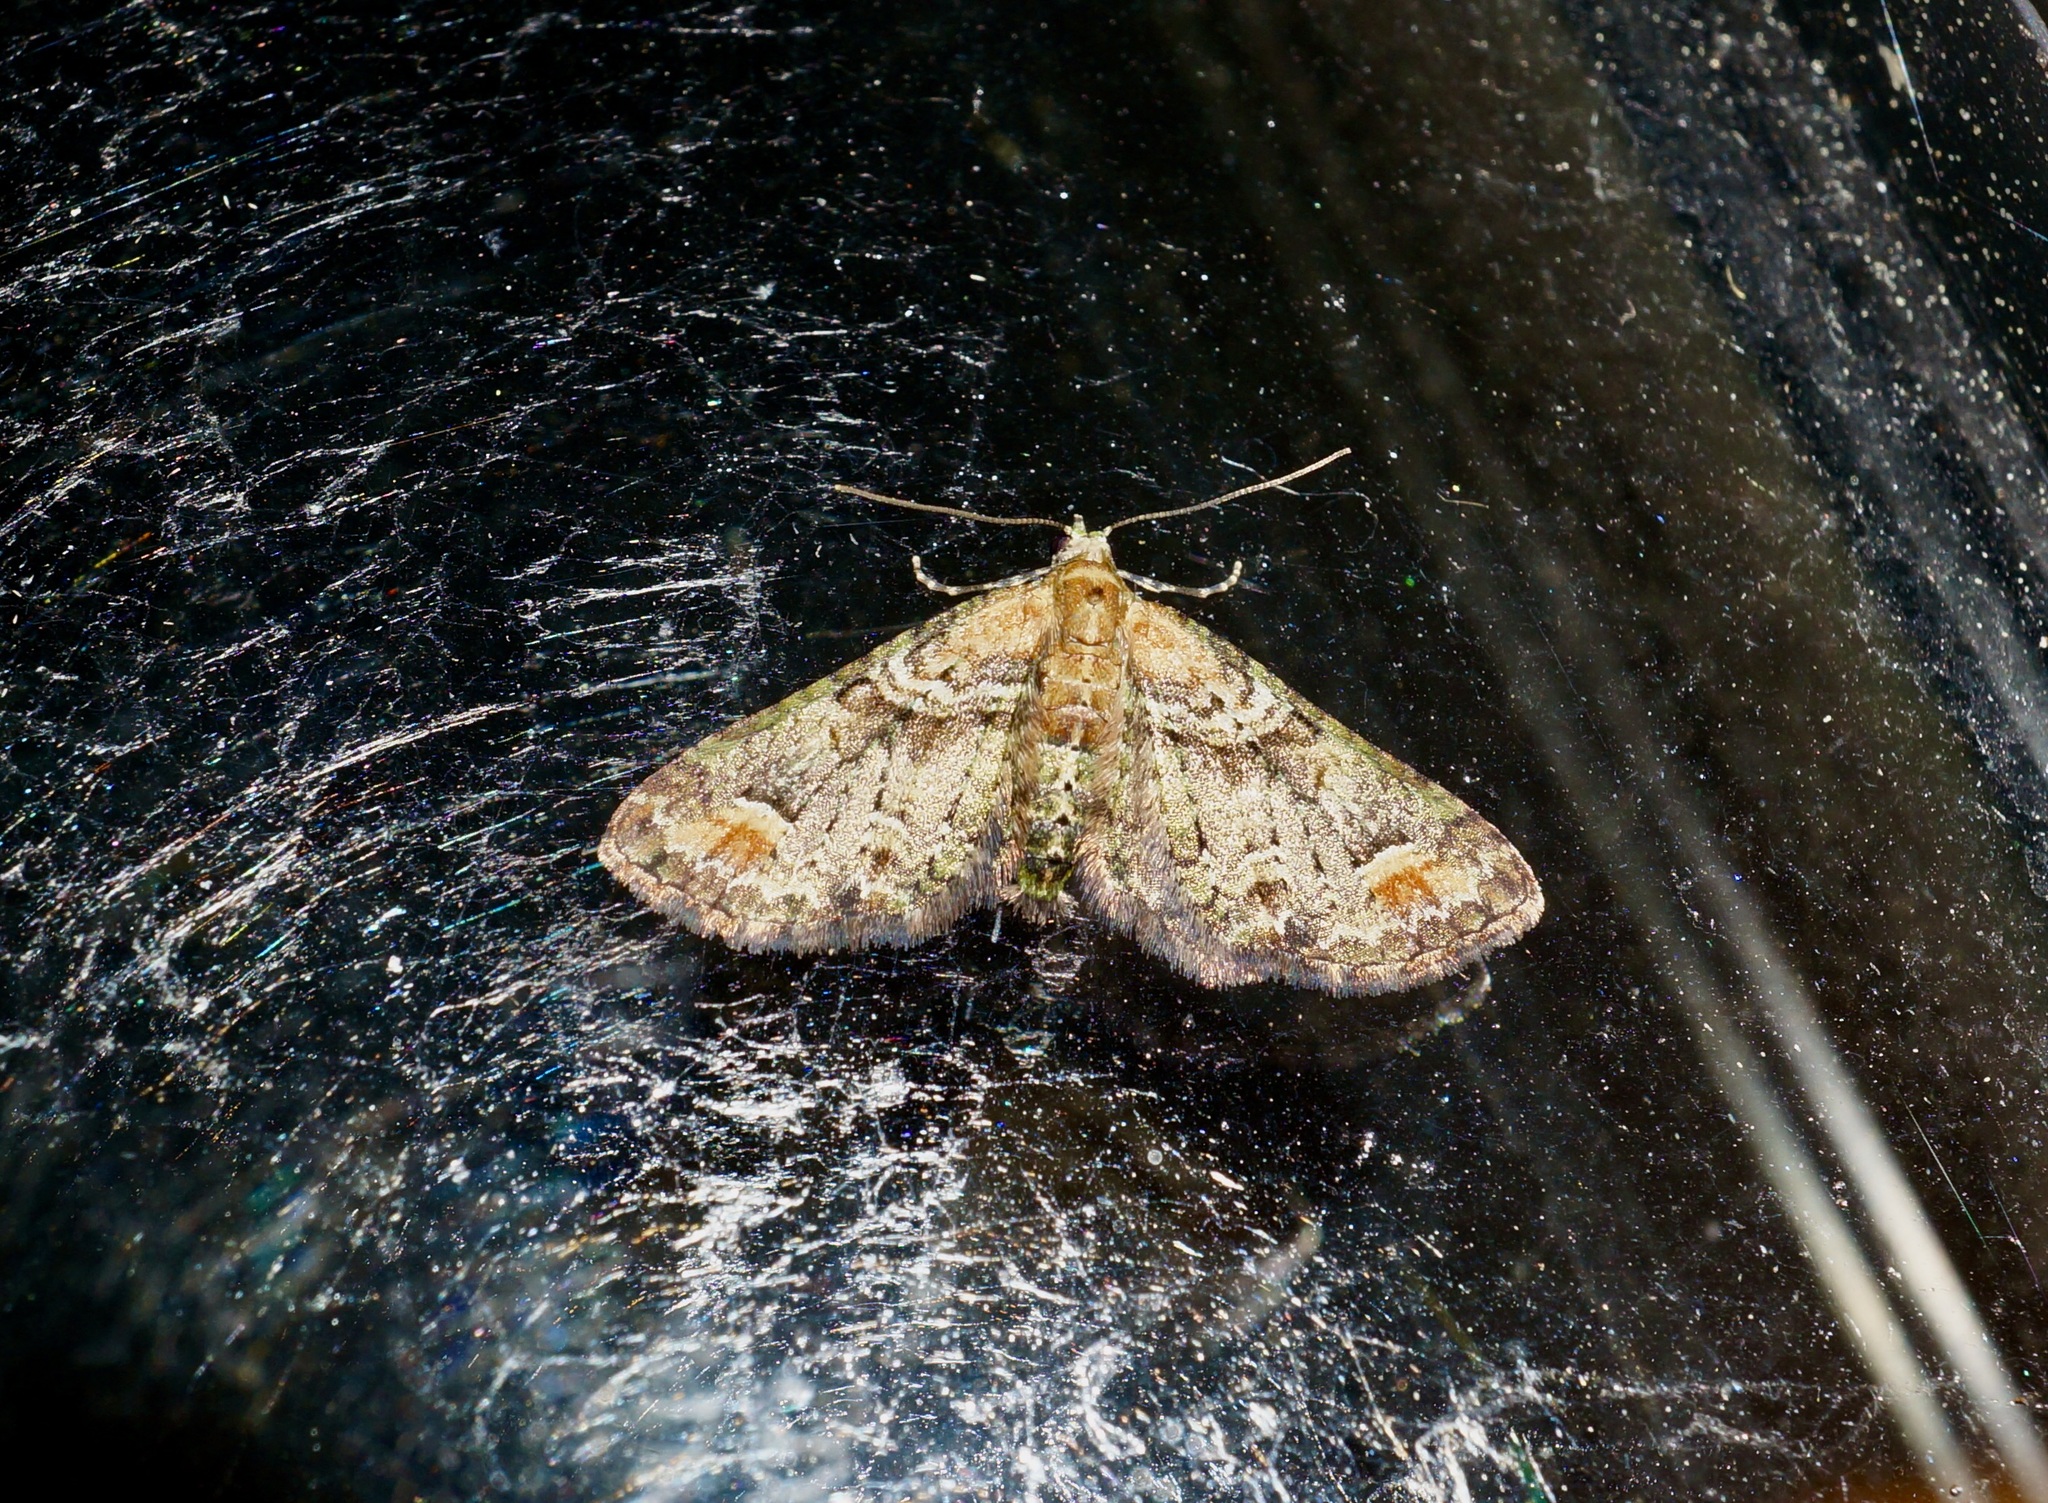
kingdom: Animalia
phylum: Arthropoda
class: Insecta
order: Lepidoptera
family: Geometridae
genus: Idaea
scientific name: Idaea mutanda
